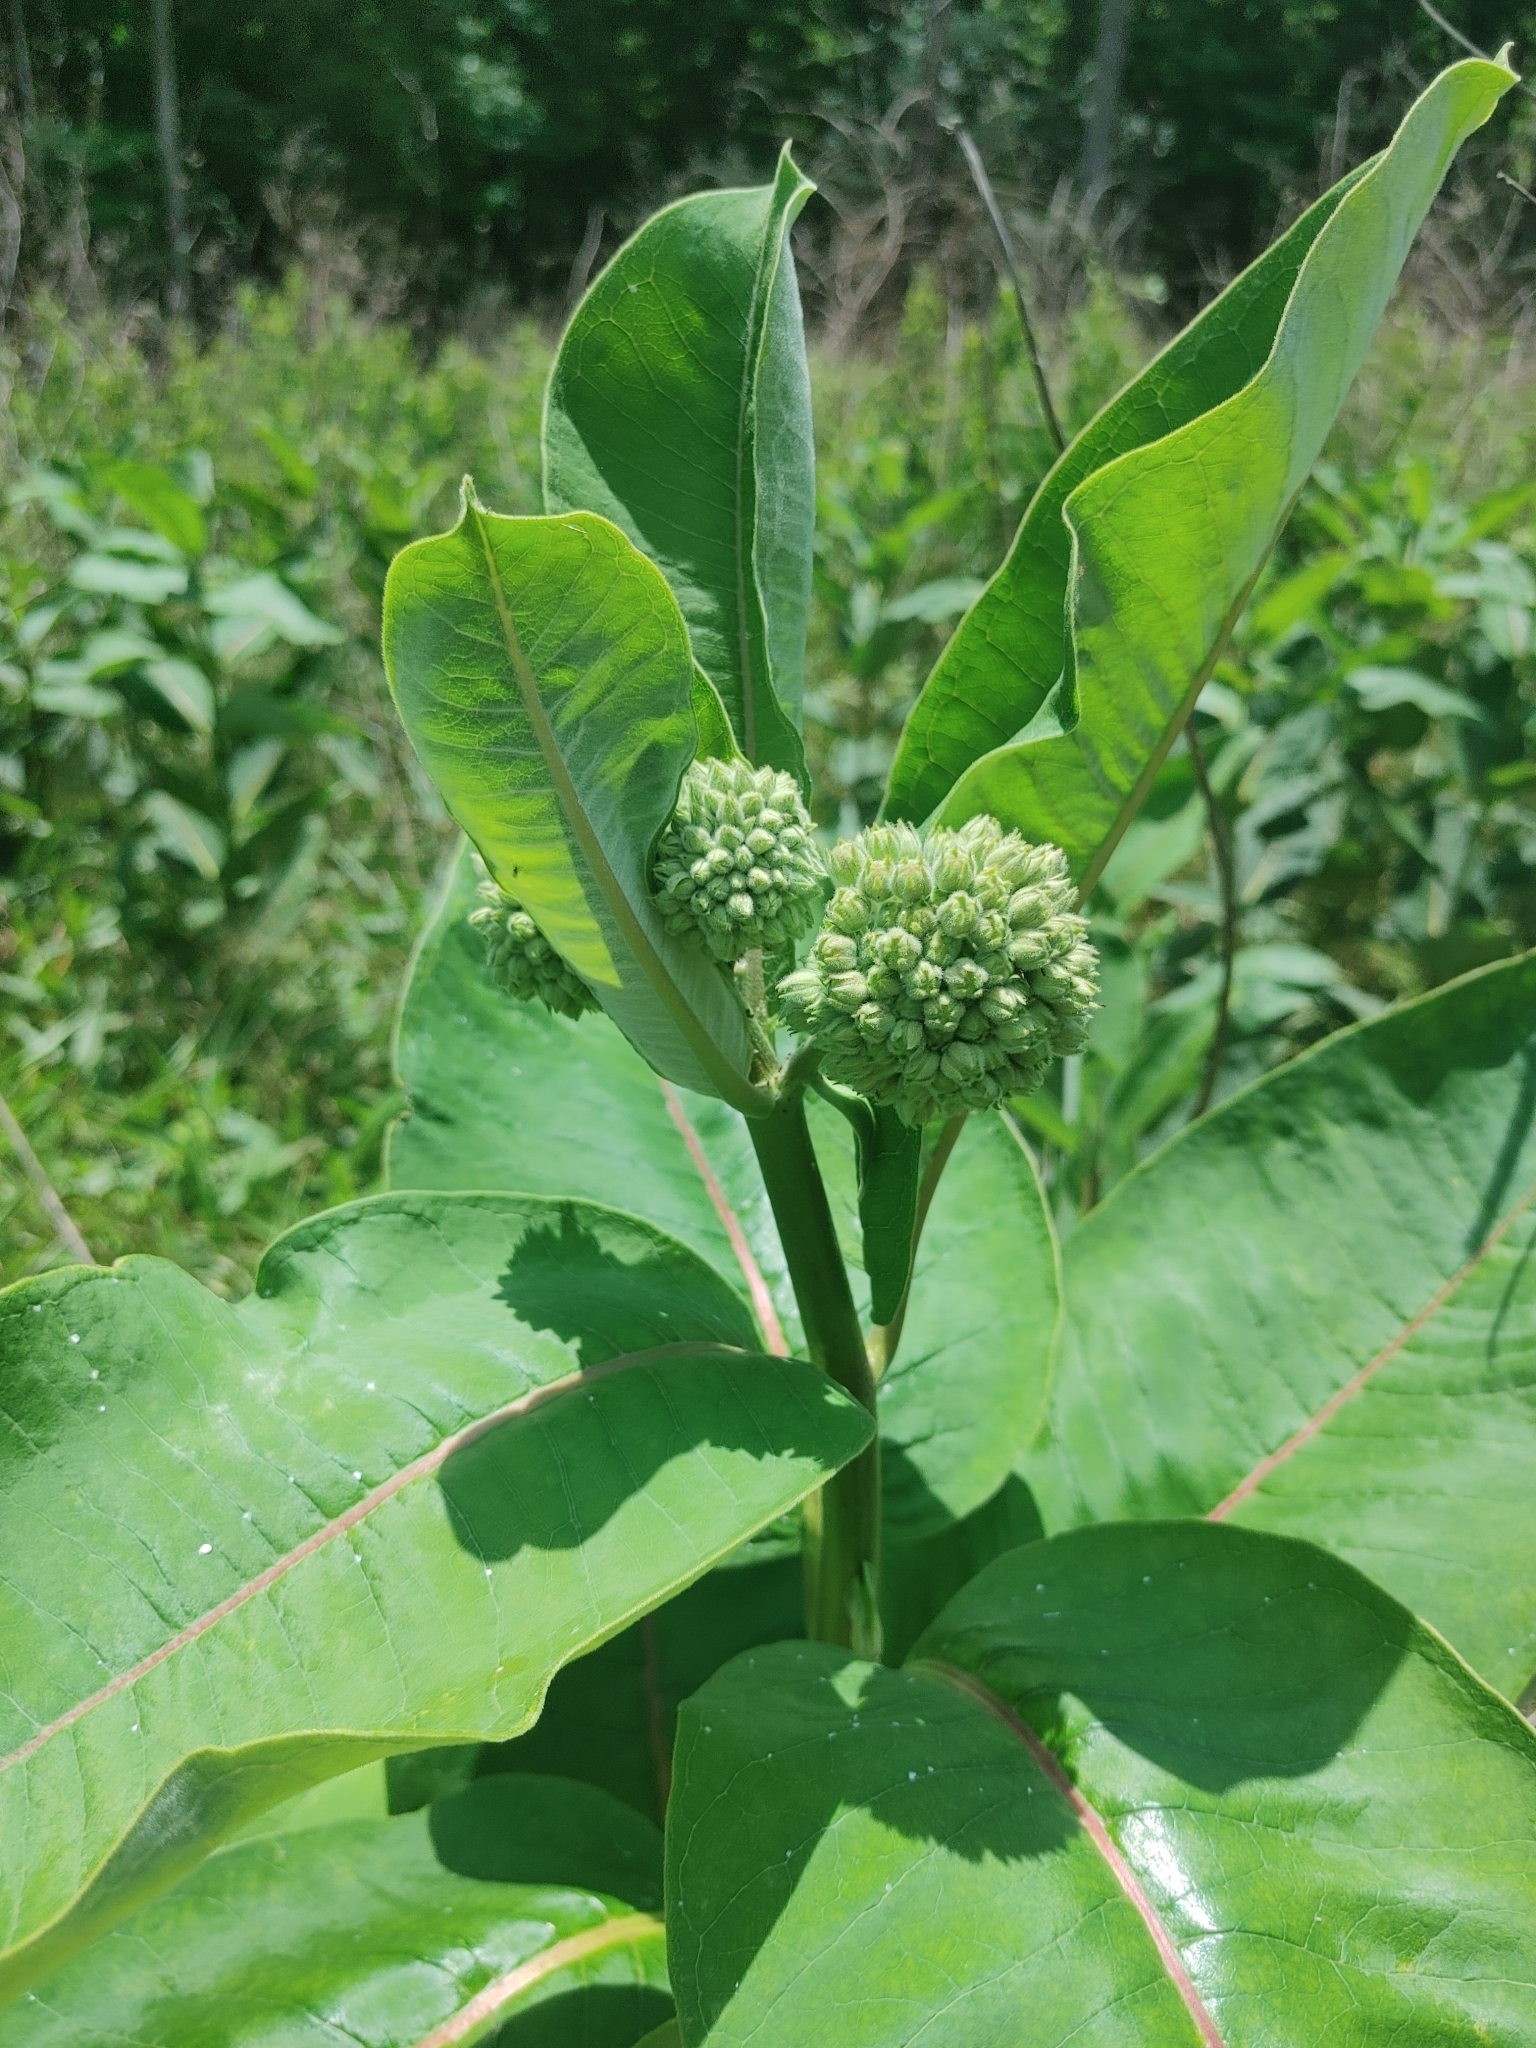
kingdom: Plantae
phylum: Tracheophyta
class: Magnoliopsida
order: Gentianales
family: Apocynaceae
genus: Asclepias
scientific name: Asclepias syriaca
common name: Common milkweed
